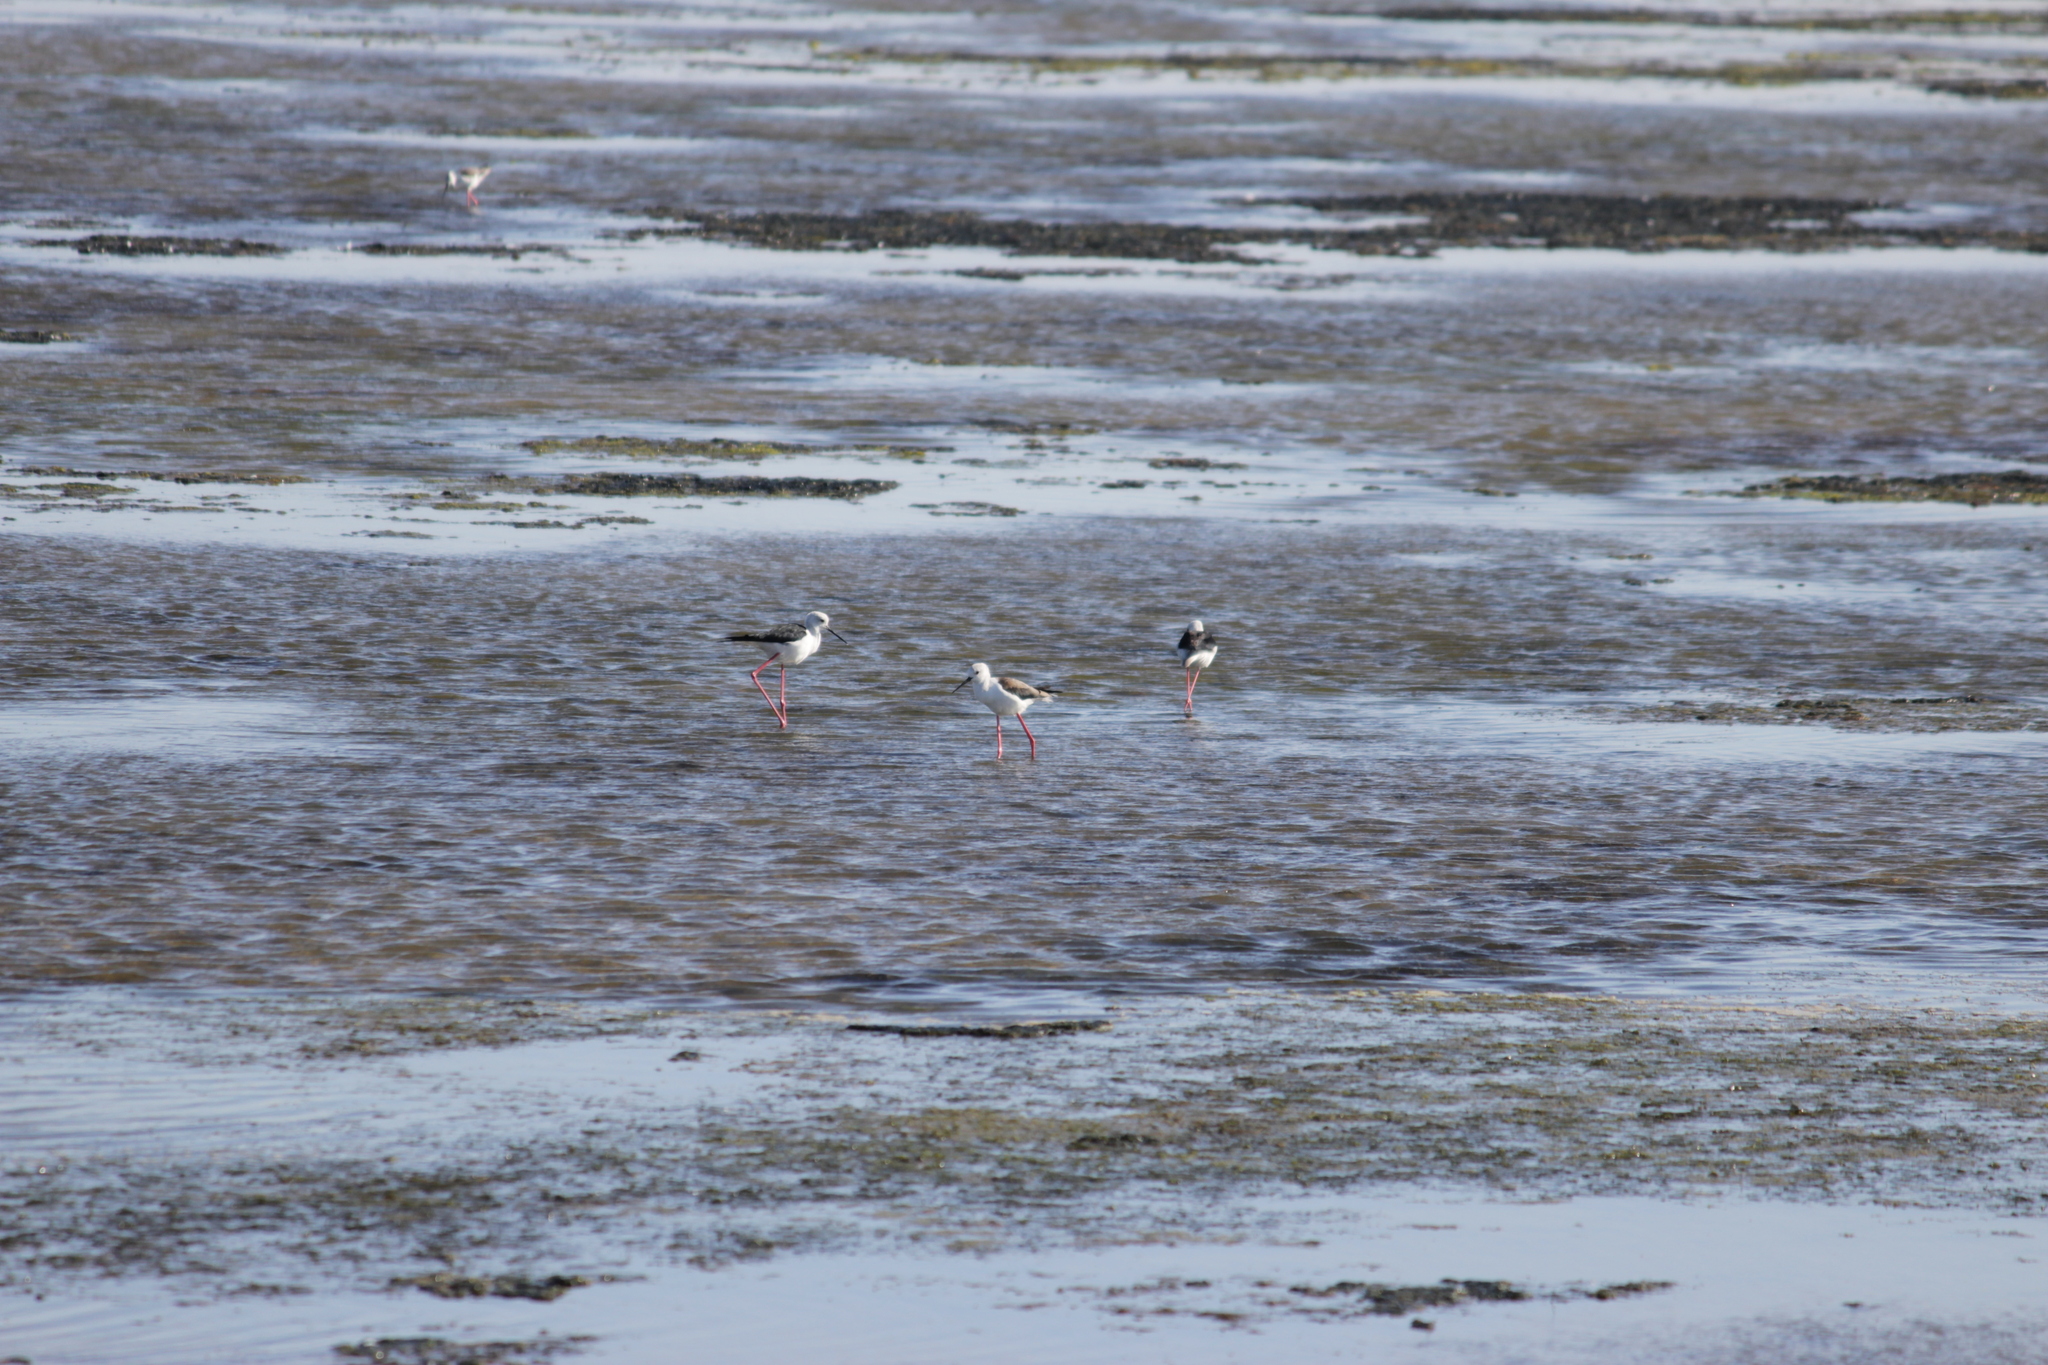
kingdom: Animalia
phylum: Chordata
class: Aves
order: Charadriiformes
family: Recurvirostridae
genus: Himantopus
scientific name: Himantopus himantopus
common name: Black-winged stilt
